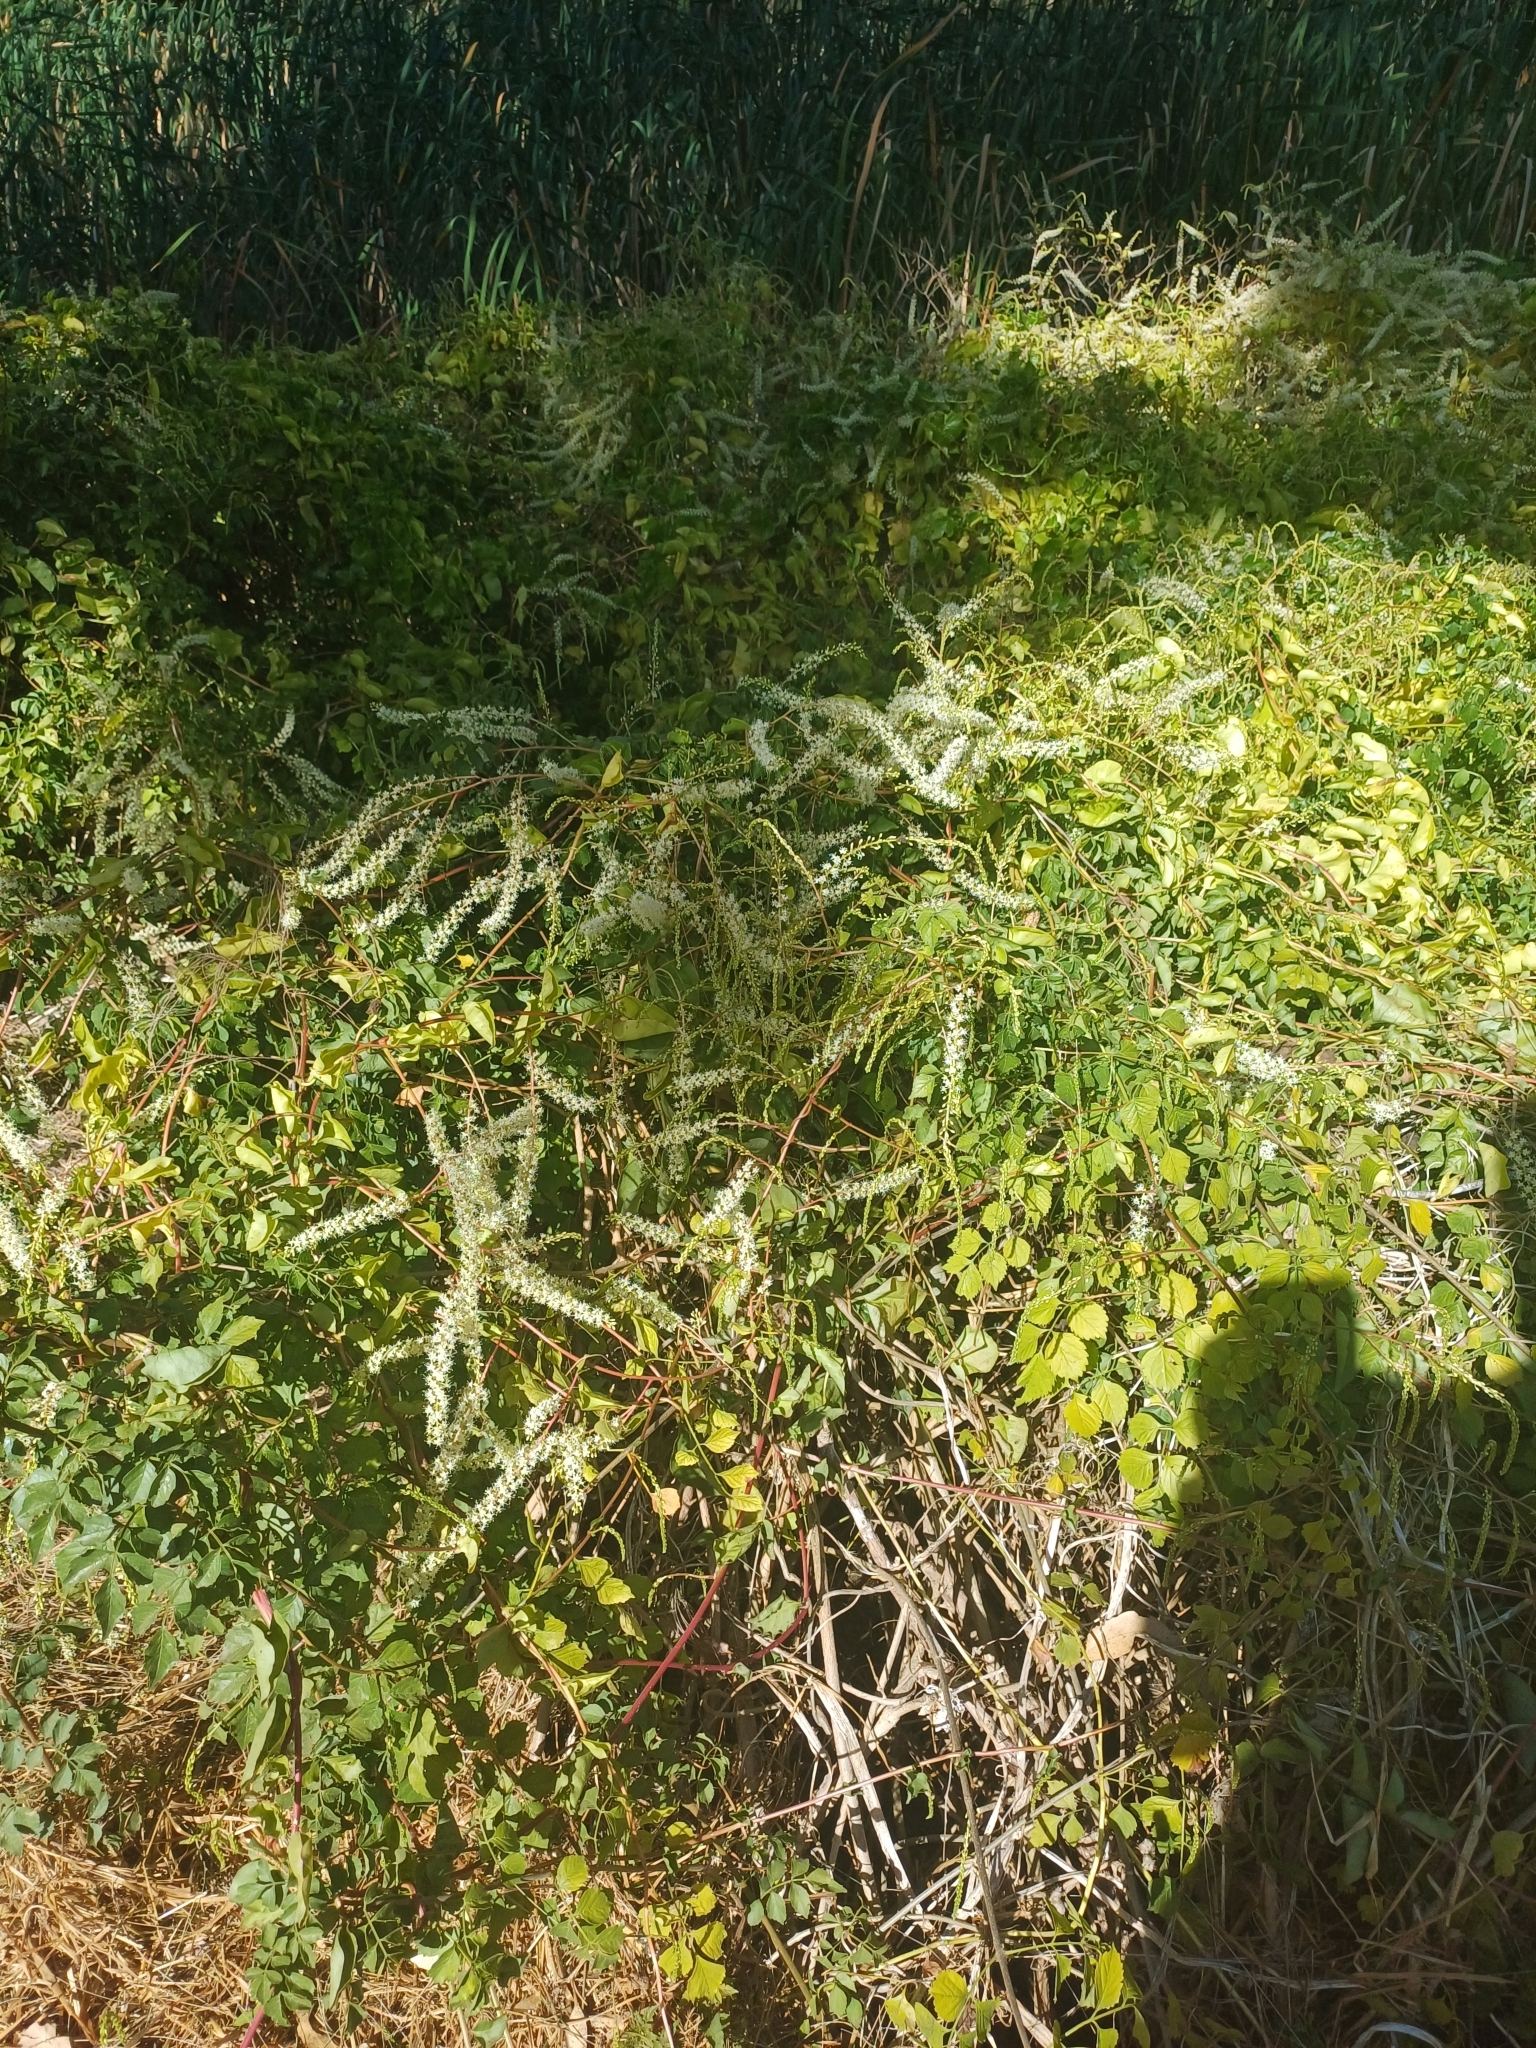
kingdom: Plantae
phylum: Tracheophyta
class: Magnoliopsida
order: Caryophyllales
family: Basellaceae
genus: Anredera
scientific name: Anredera cordifolia
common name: Heartleaf madeiravine
